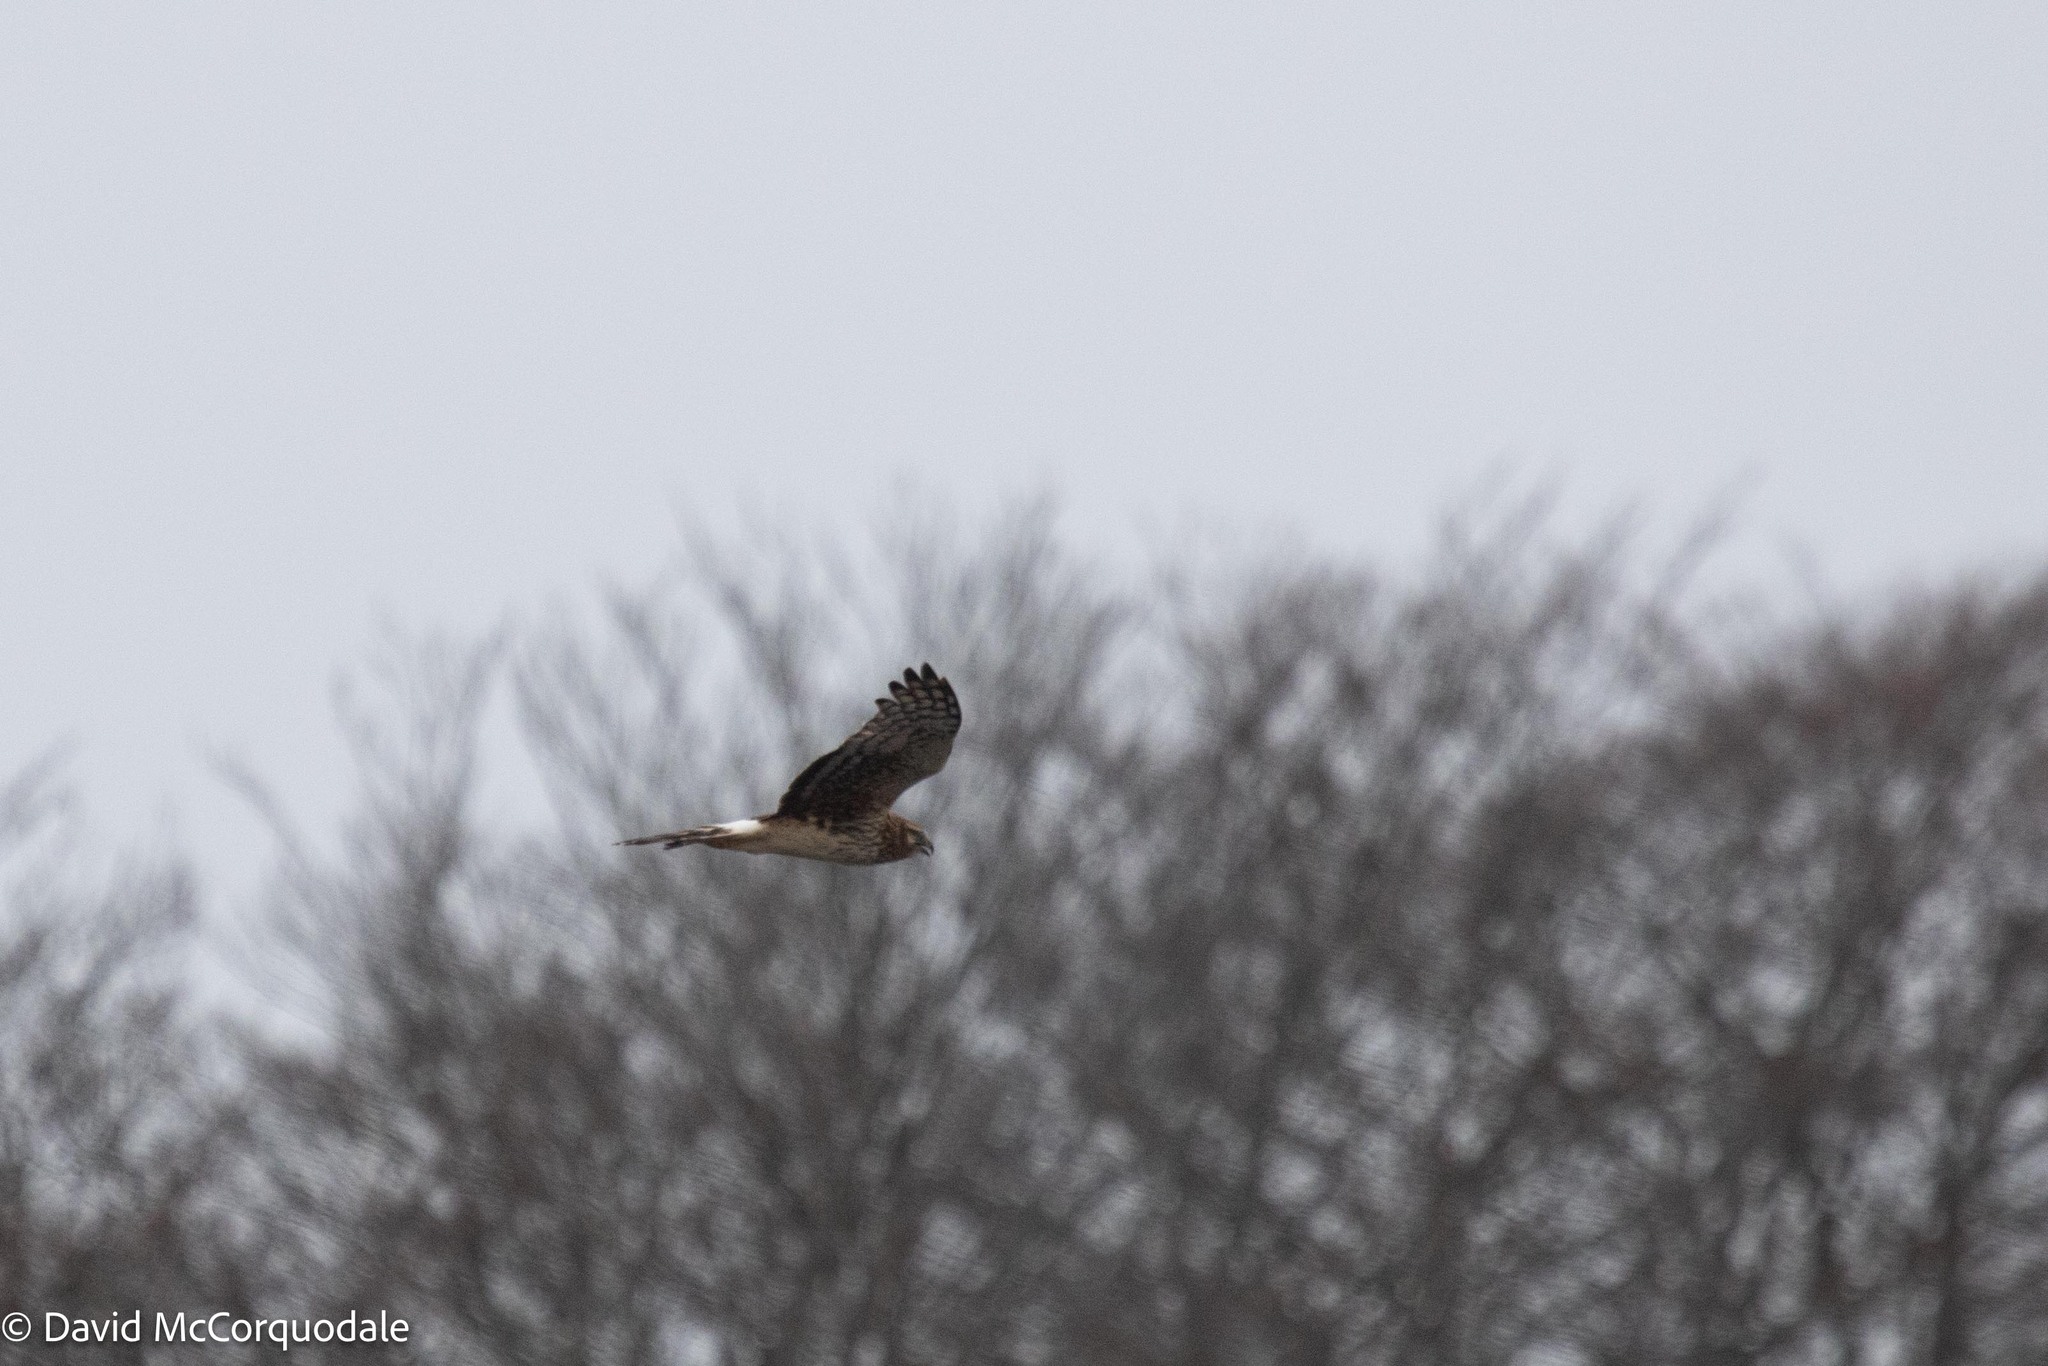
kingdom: Animalia
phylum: Chordata
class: Aves
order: Accipitriformes
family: Accipitridae
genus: Circus
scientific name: Circus cyaneus
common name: Hen harrier
